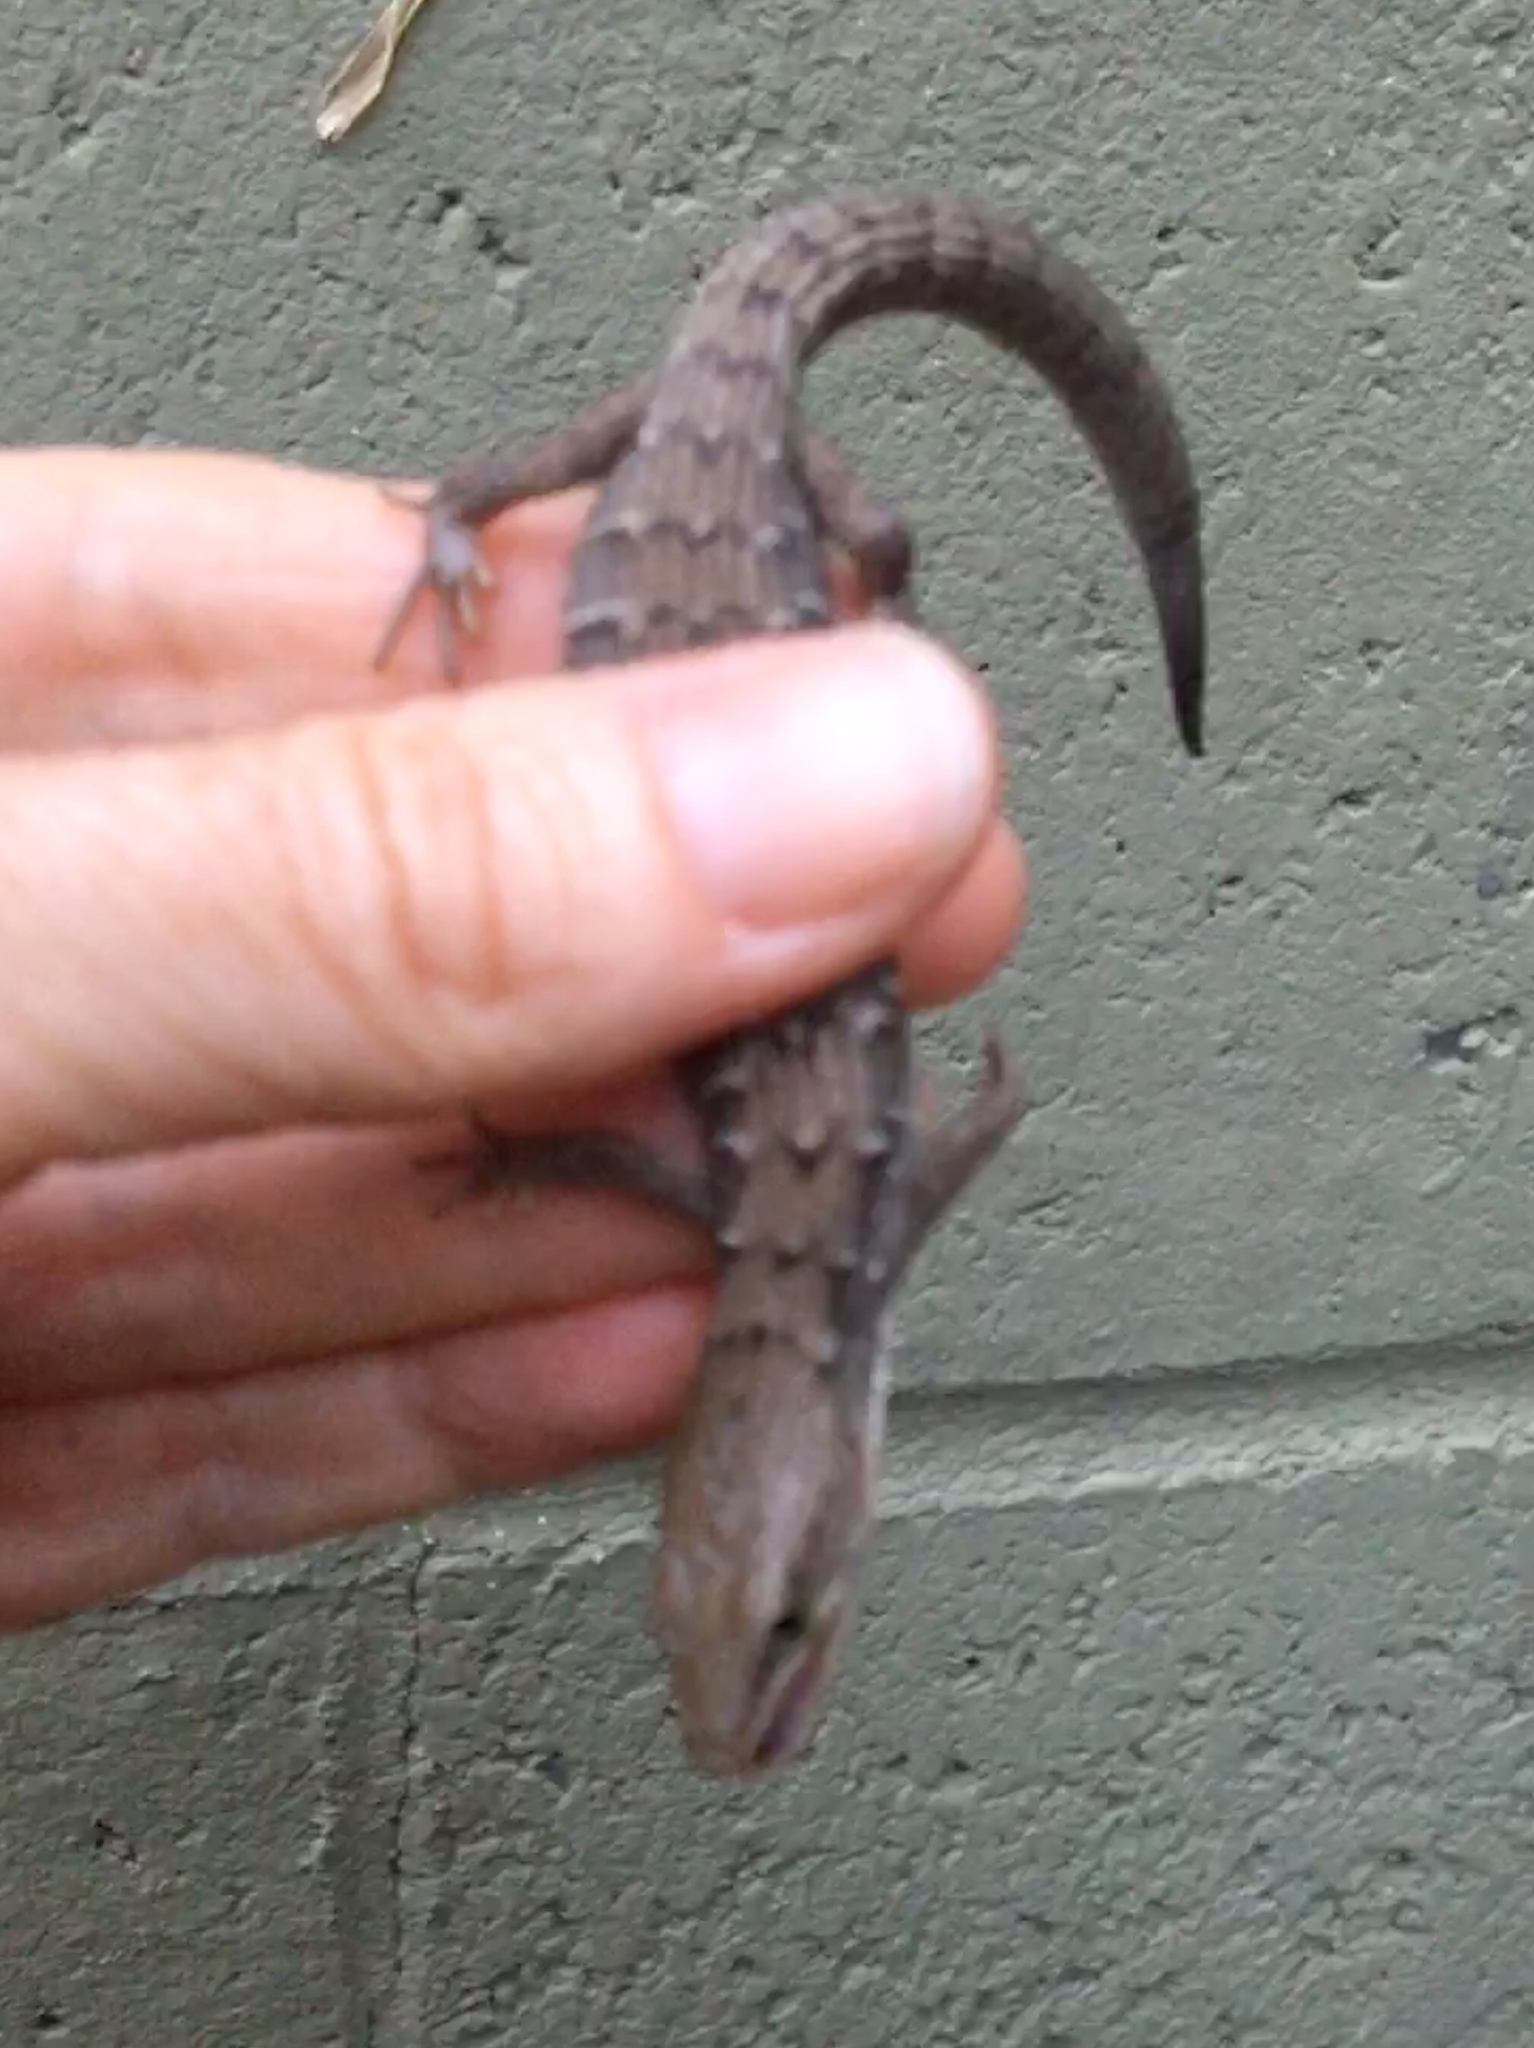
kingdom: Animalia
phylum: Chordata
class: Squamata
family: Anguidae
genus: Elgaria
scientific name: Elgaria multicarinata
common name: Southern alligator lizard
